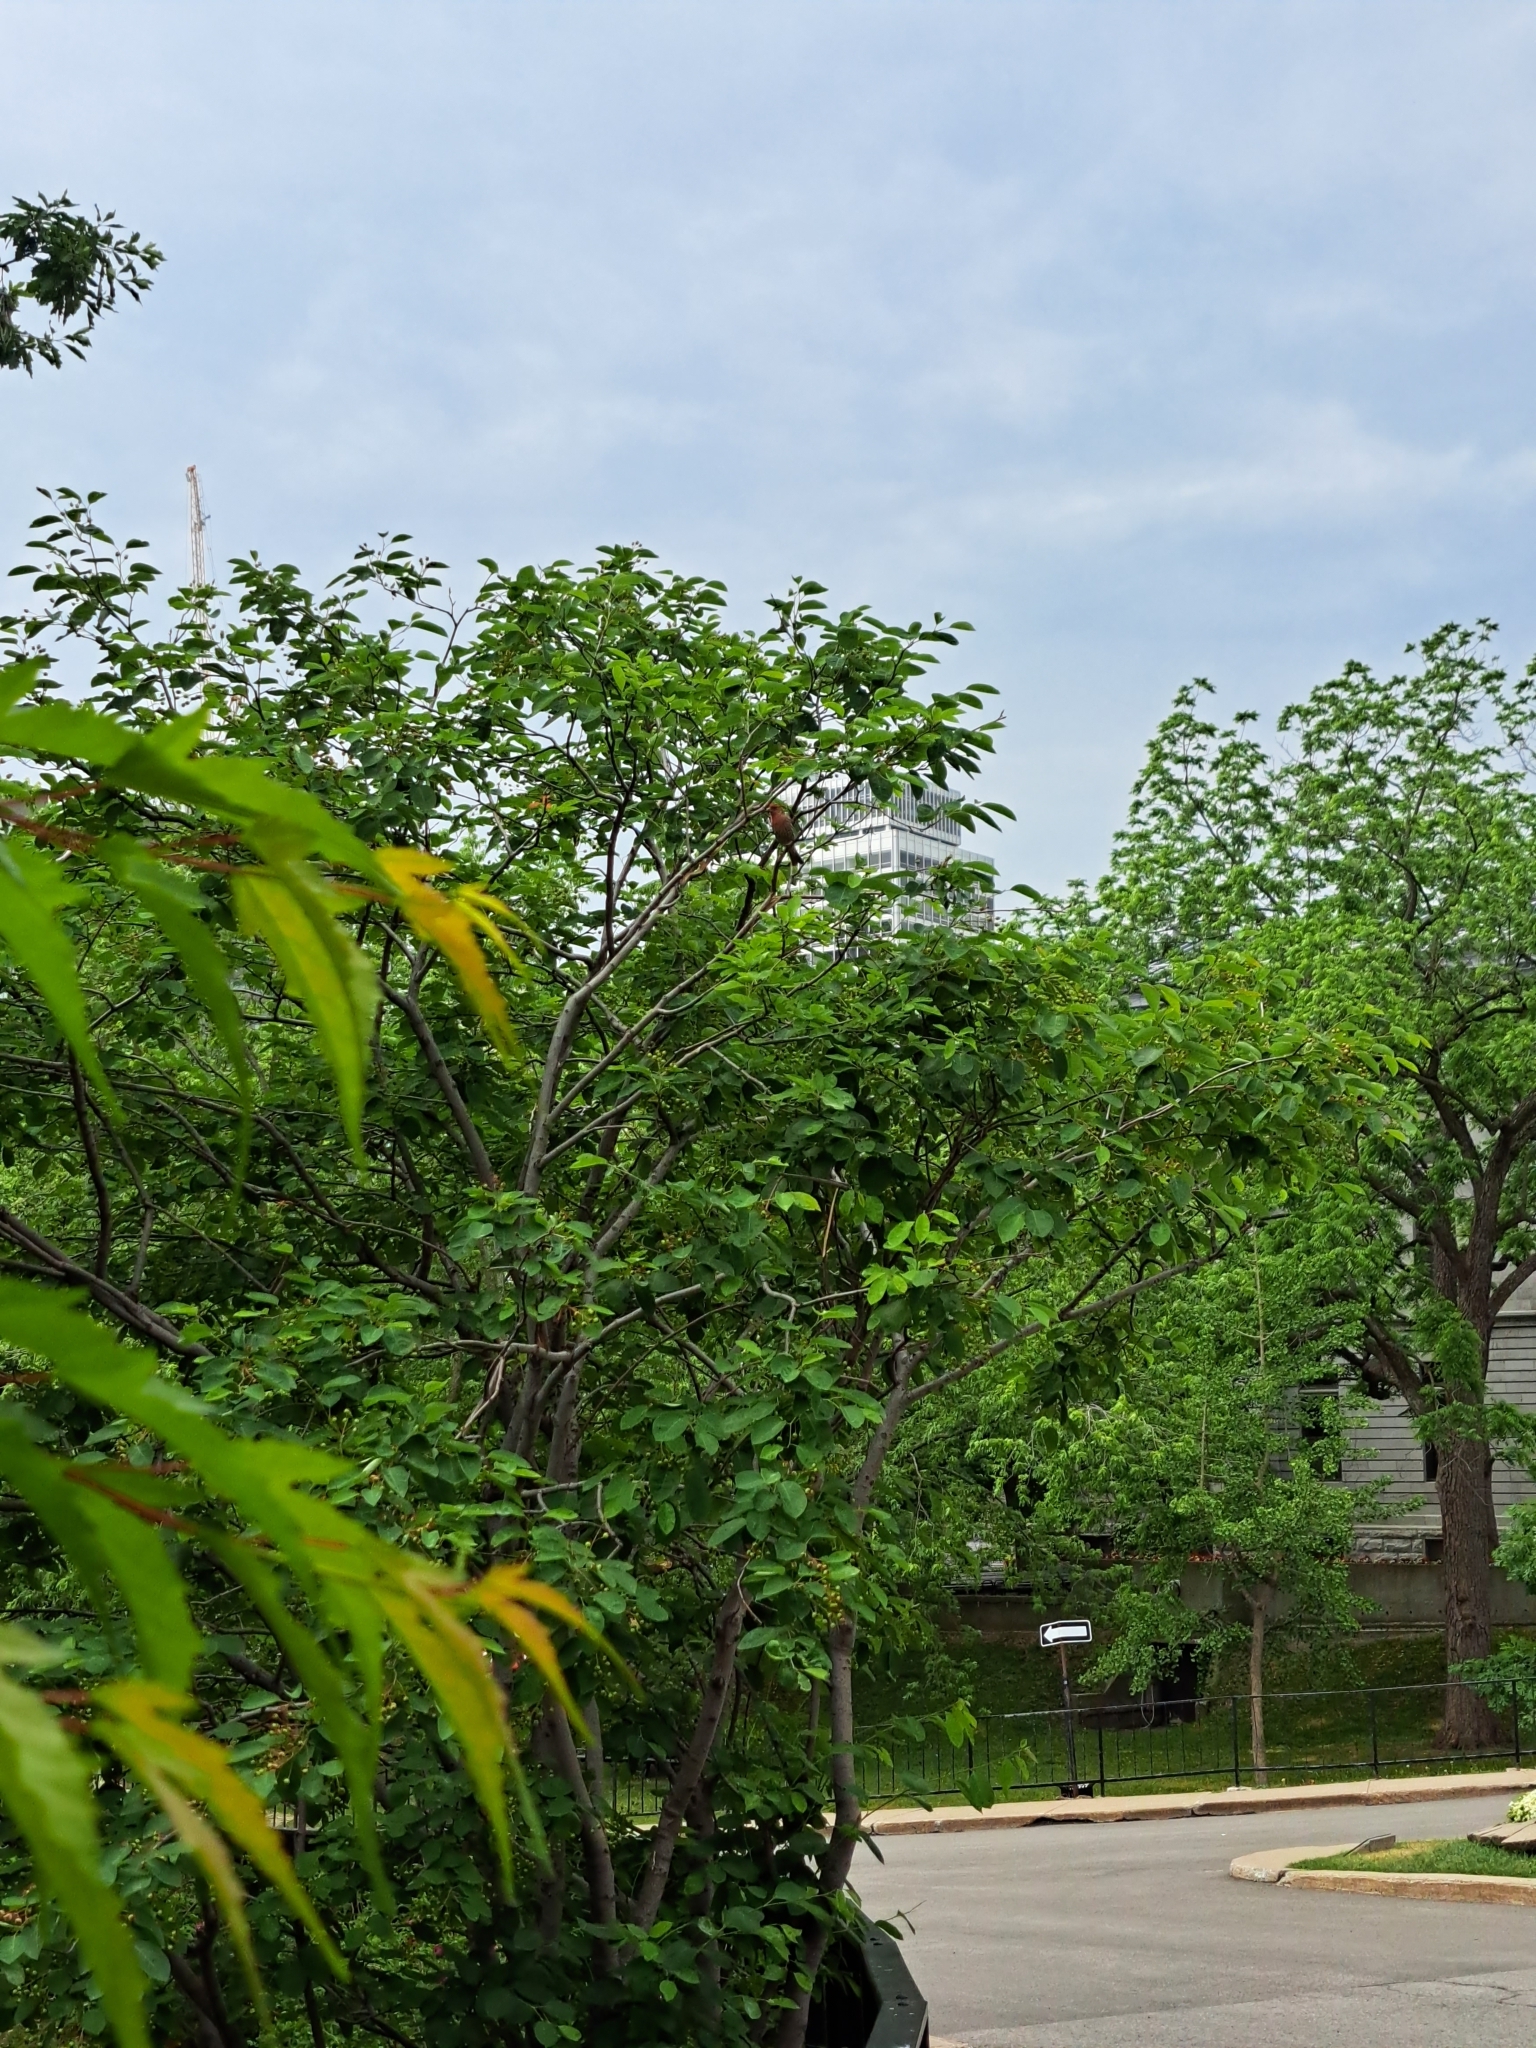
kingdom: Animalia
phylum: Chordata
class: Aves
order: Passeriformes
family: Fringillidae
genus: Haemorhous
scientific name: Haemorhous mexicanus
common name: House finch
